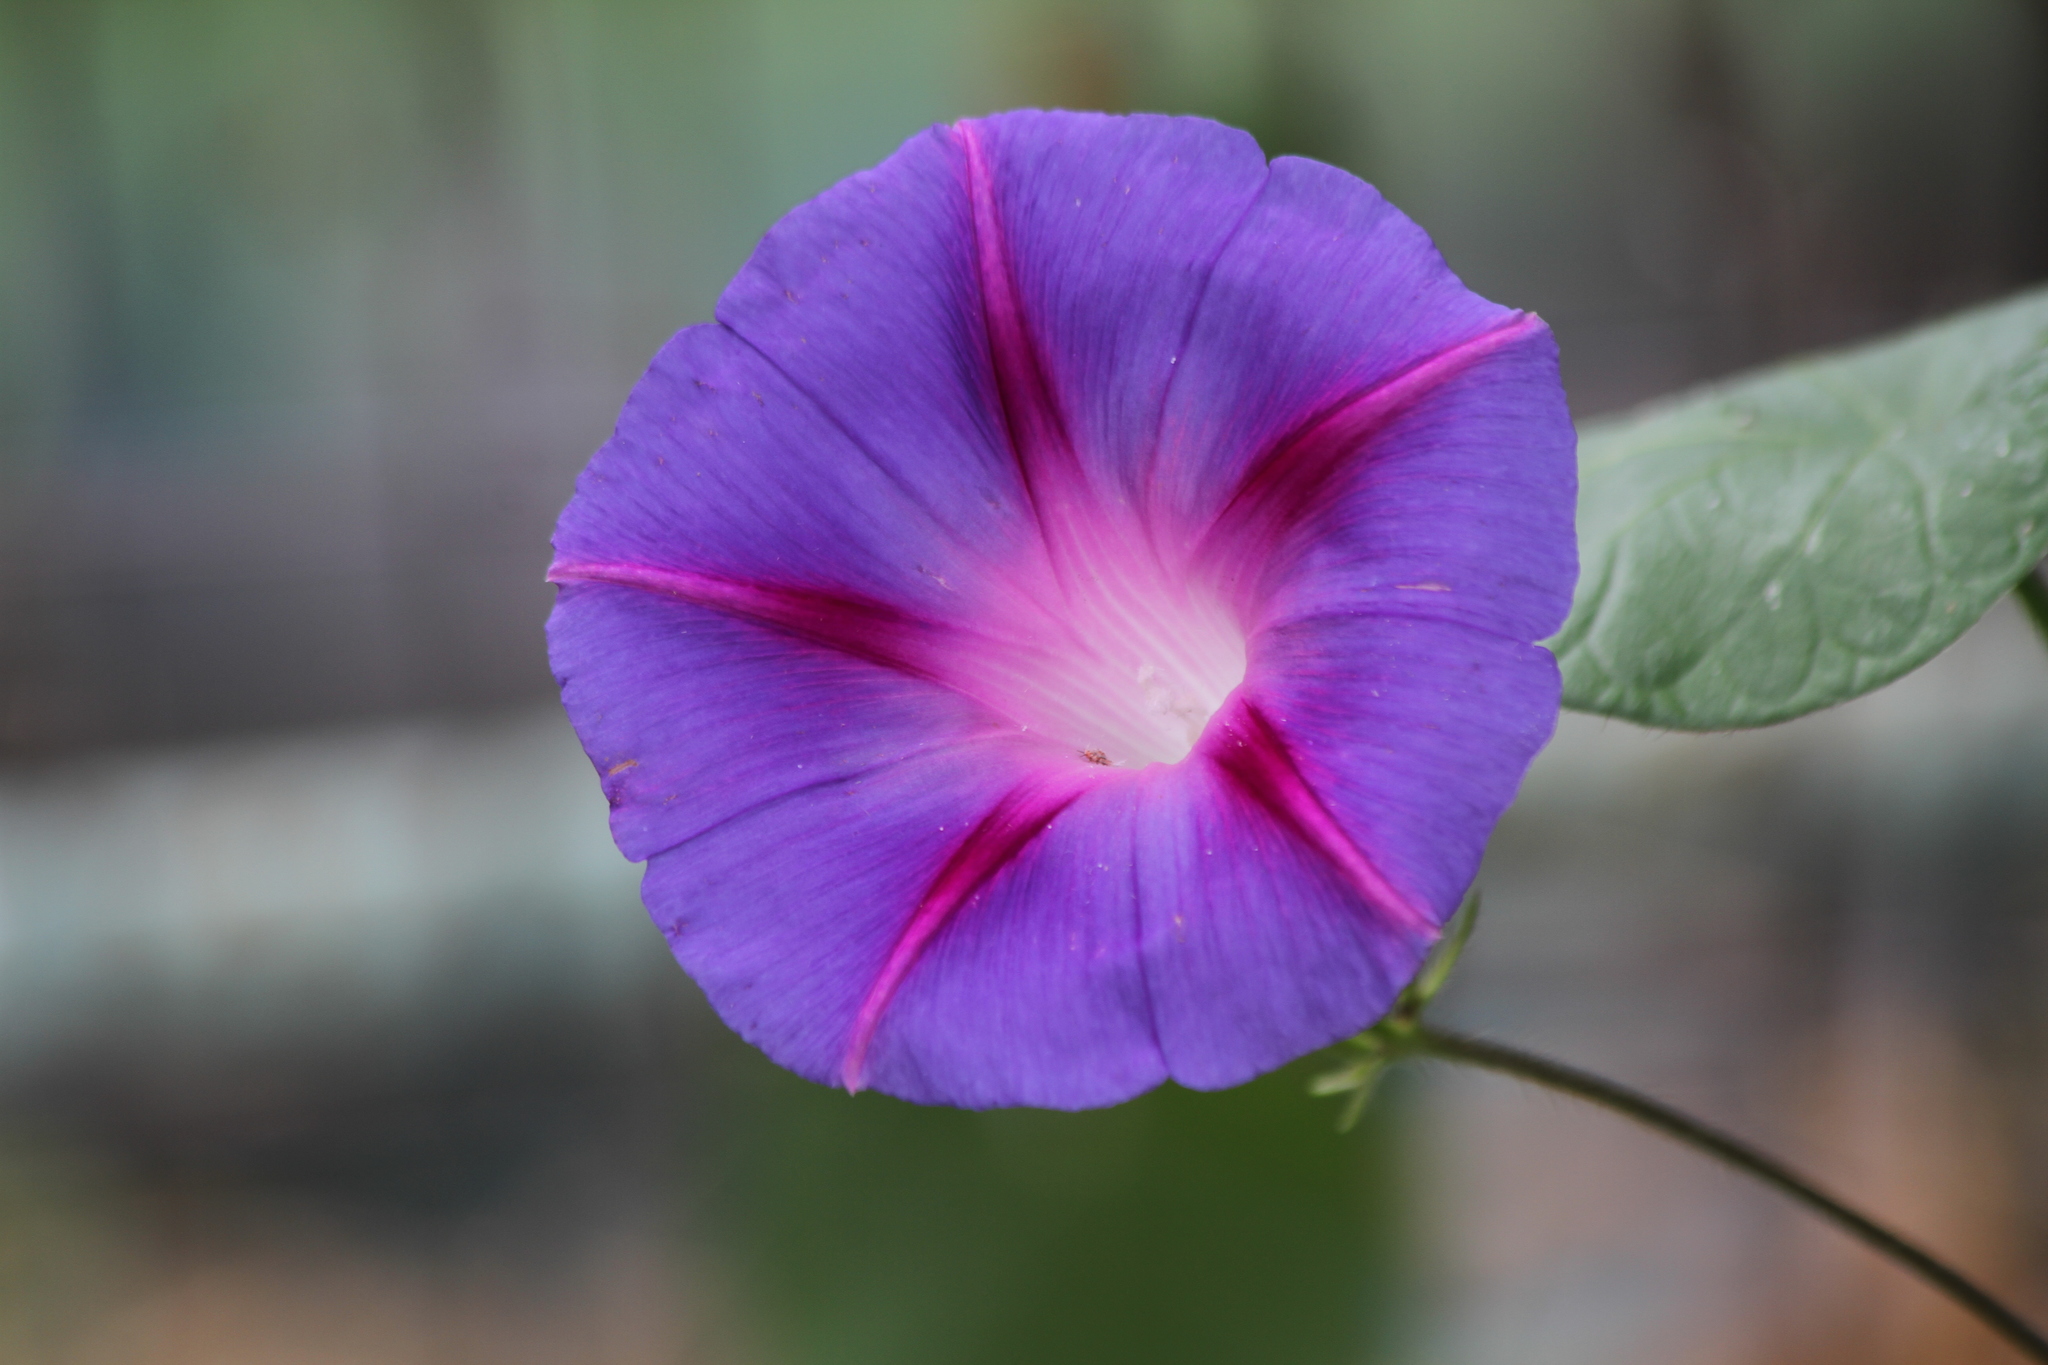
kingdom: Plantae
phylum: Tracheophyta
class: Magnoliopsida
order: Solanales
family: Convolvulaceae
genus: Ipomoea
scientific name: Ipomoea purpurea
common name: Common morning-glory
